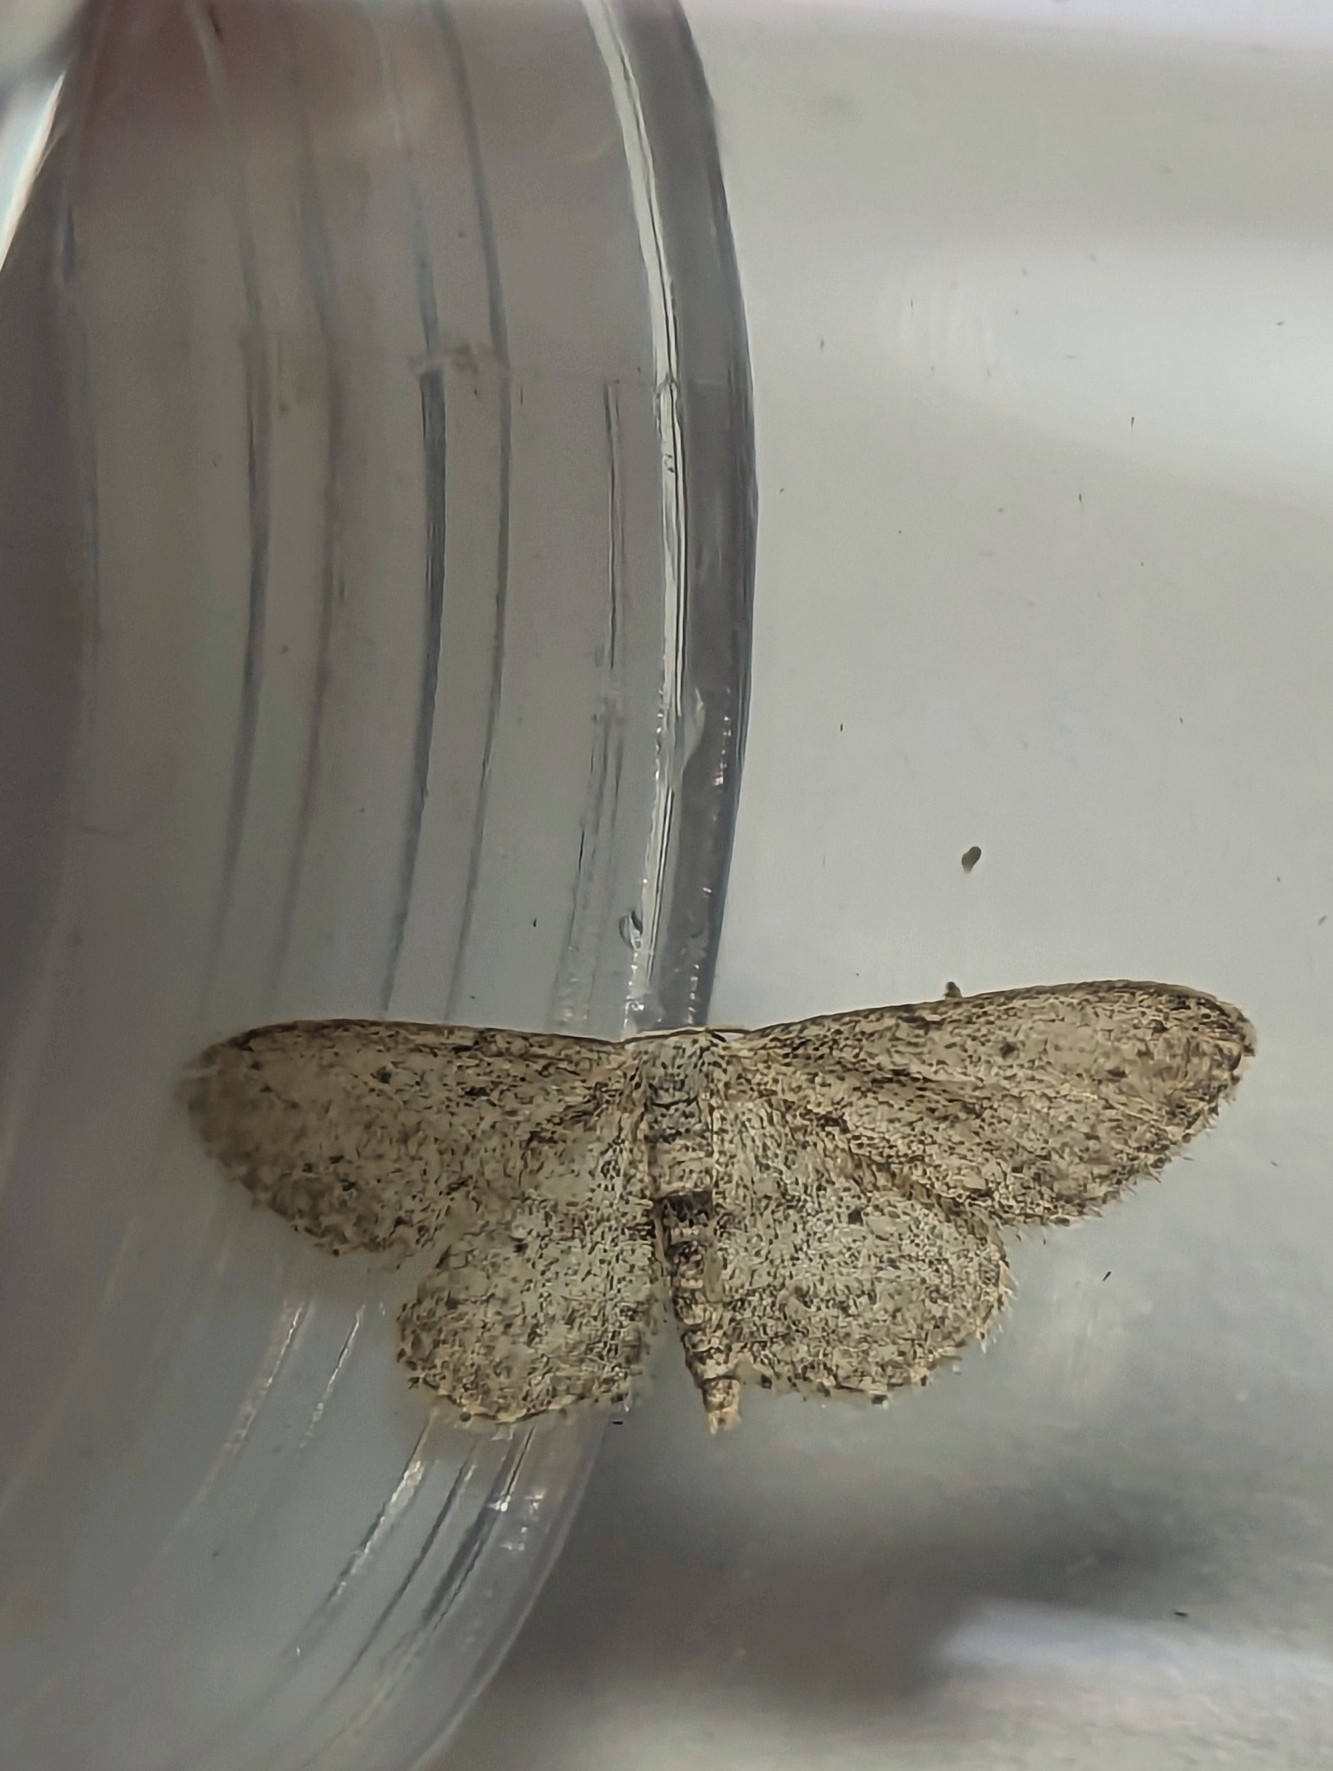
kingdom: Animalia
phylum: Arthropoda
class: Insecta
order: Lepidoptera
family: Geometridae
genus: Idaea
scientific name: Idaea seriata
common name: Small dusty wave
